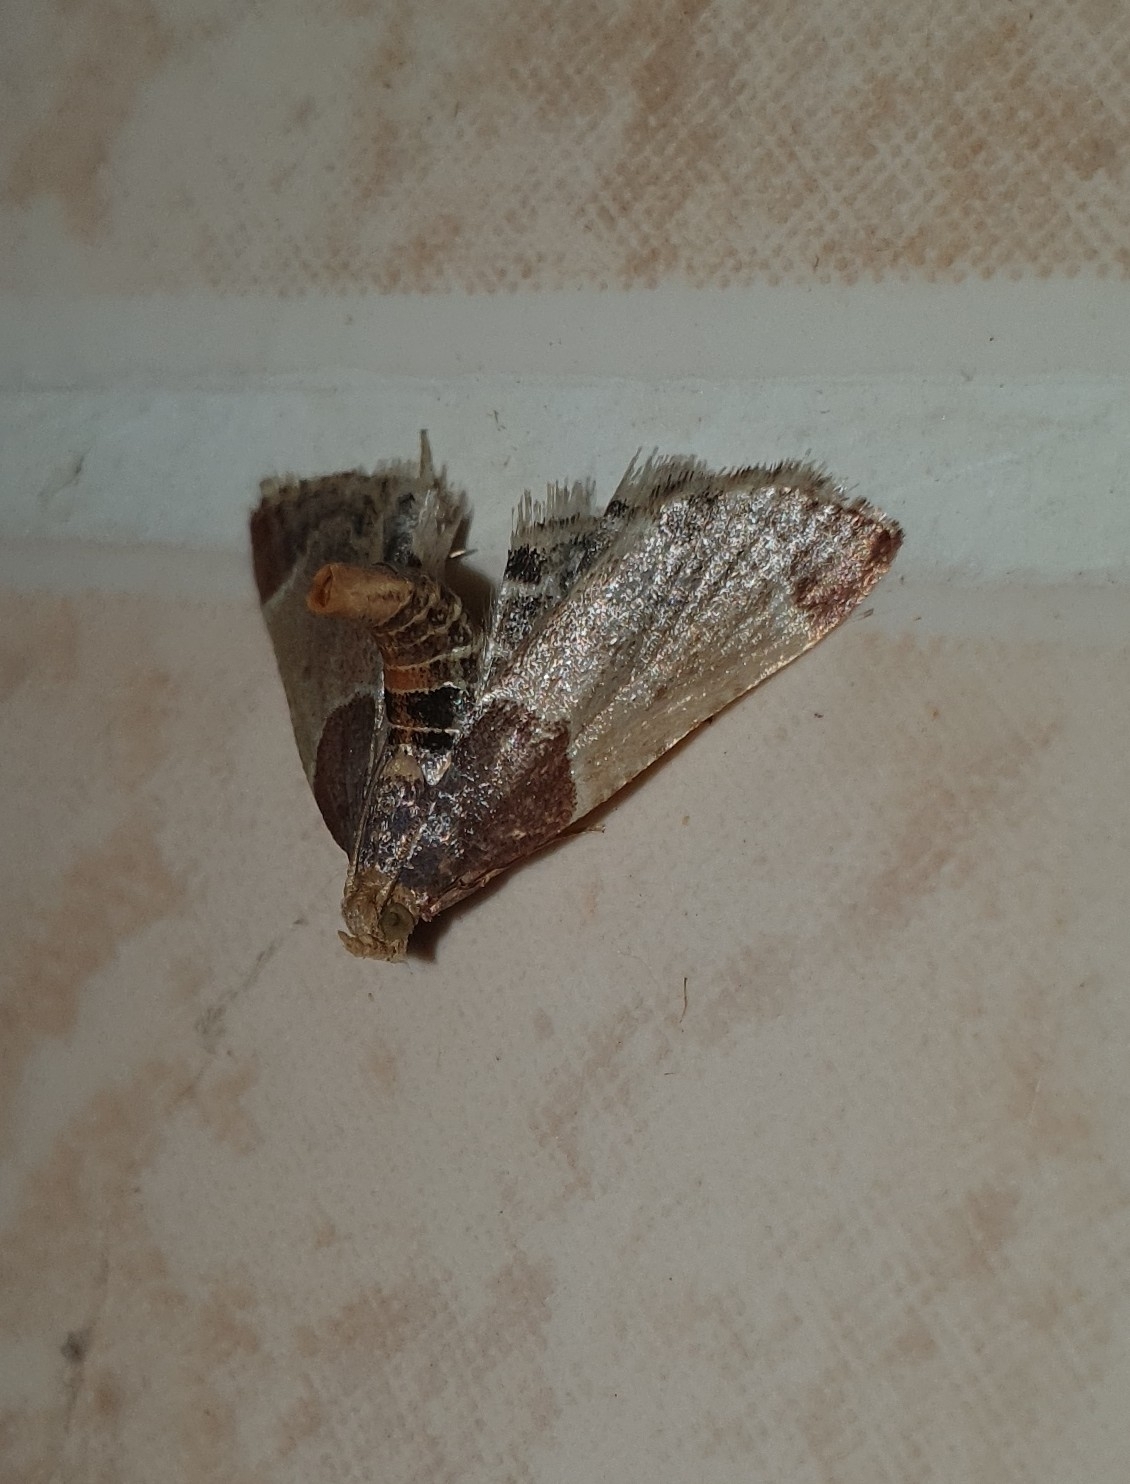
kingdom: Animalia
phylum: Arthropoda
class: Insecta
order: Lepidoptera
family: Pyralidae
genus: Pyralis
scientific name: Pyralis farinalis
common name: Meal moth
